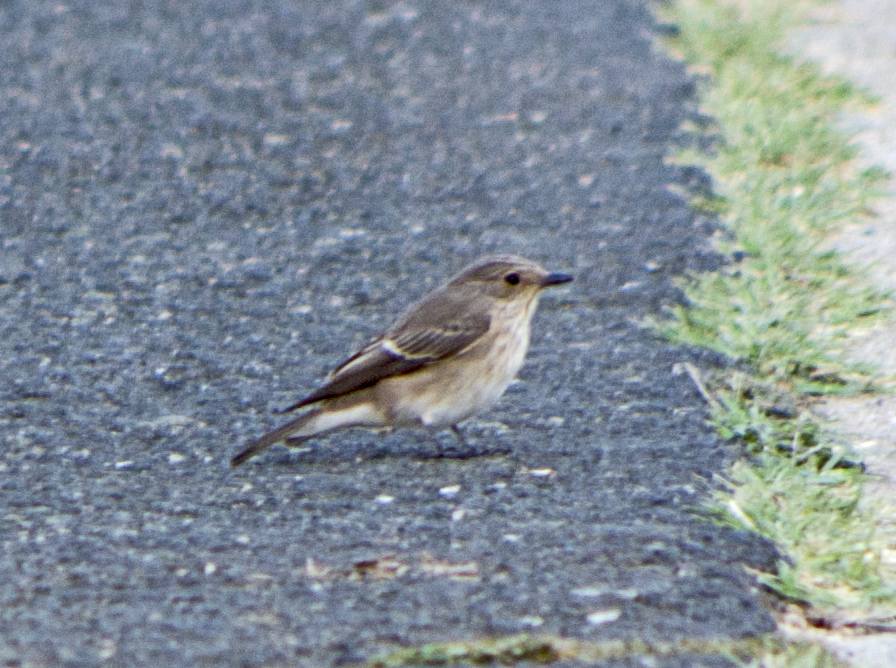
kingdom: Animalia
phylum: Chordata
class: Aves
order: Passeriformes
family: Muscicapidae
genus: Muscicapa
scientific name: Muscicapa striata
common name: Spotted flycatcher
